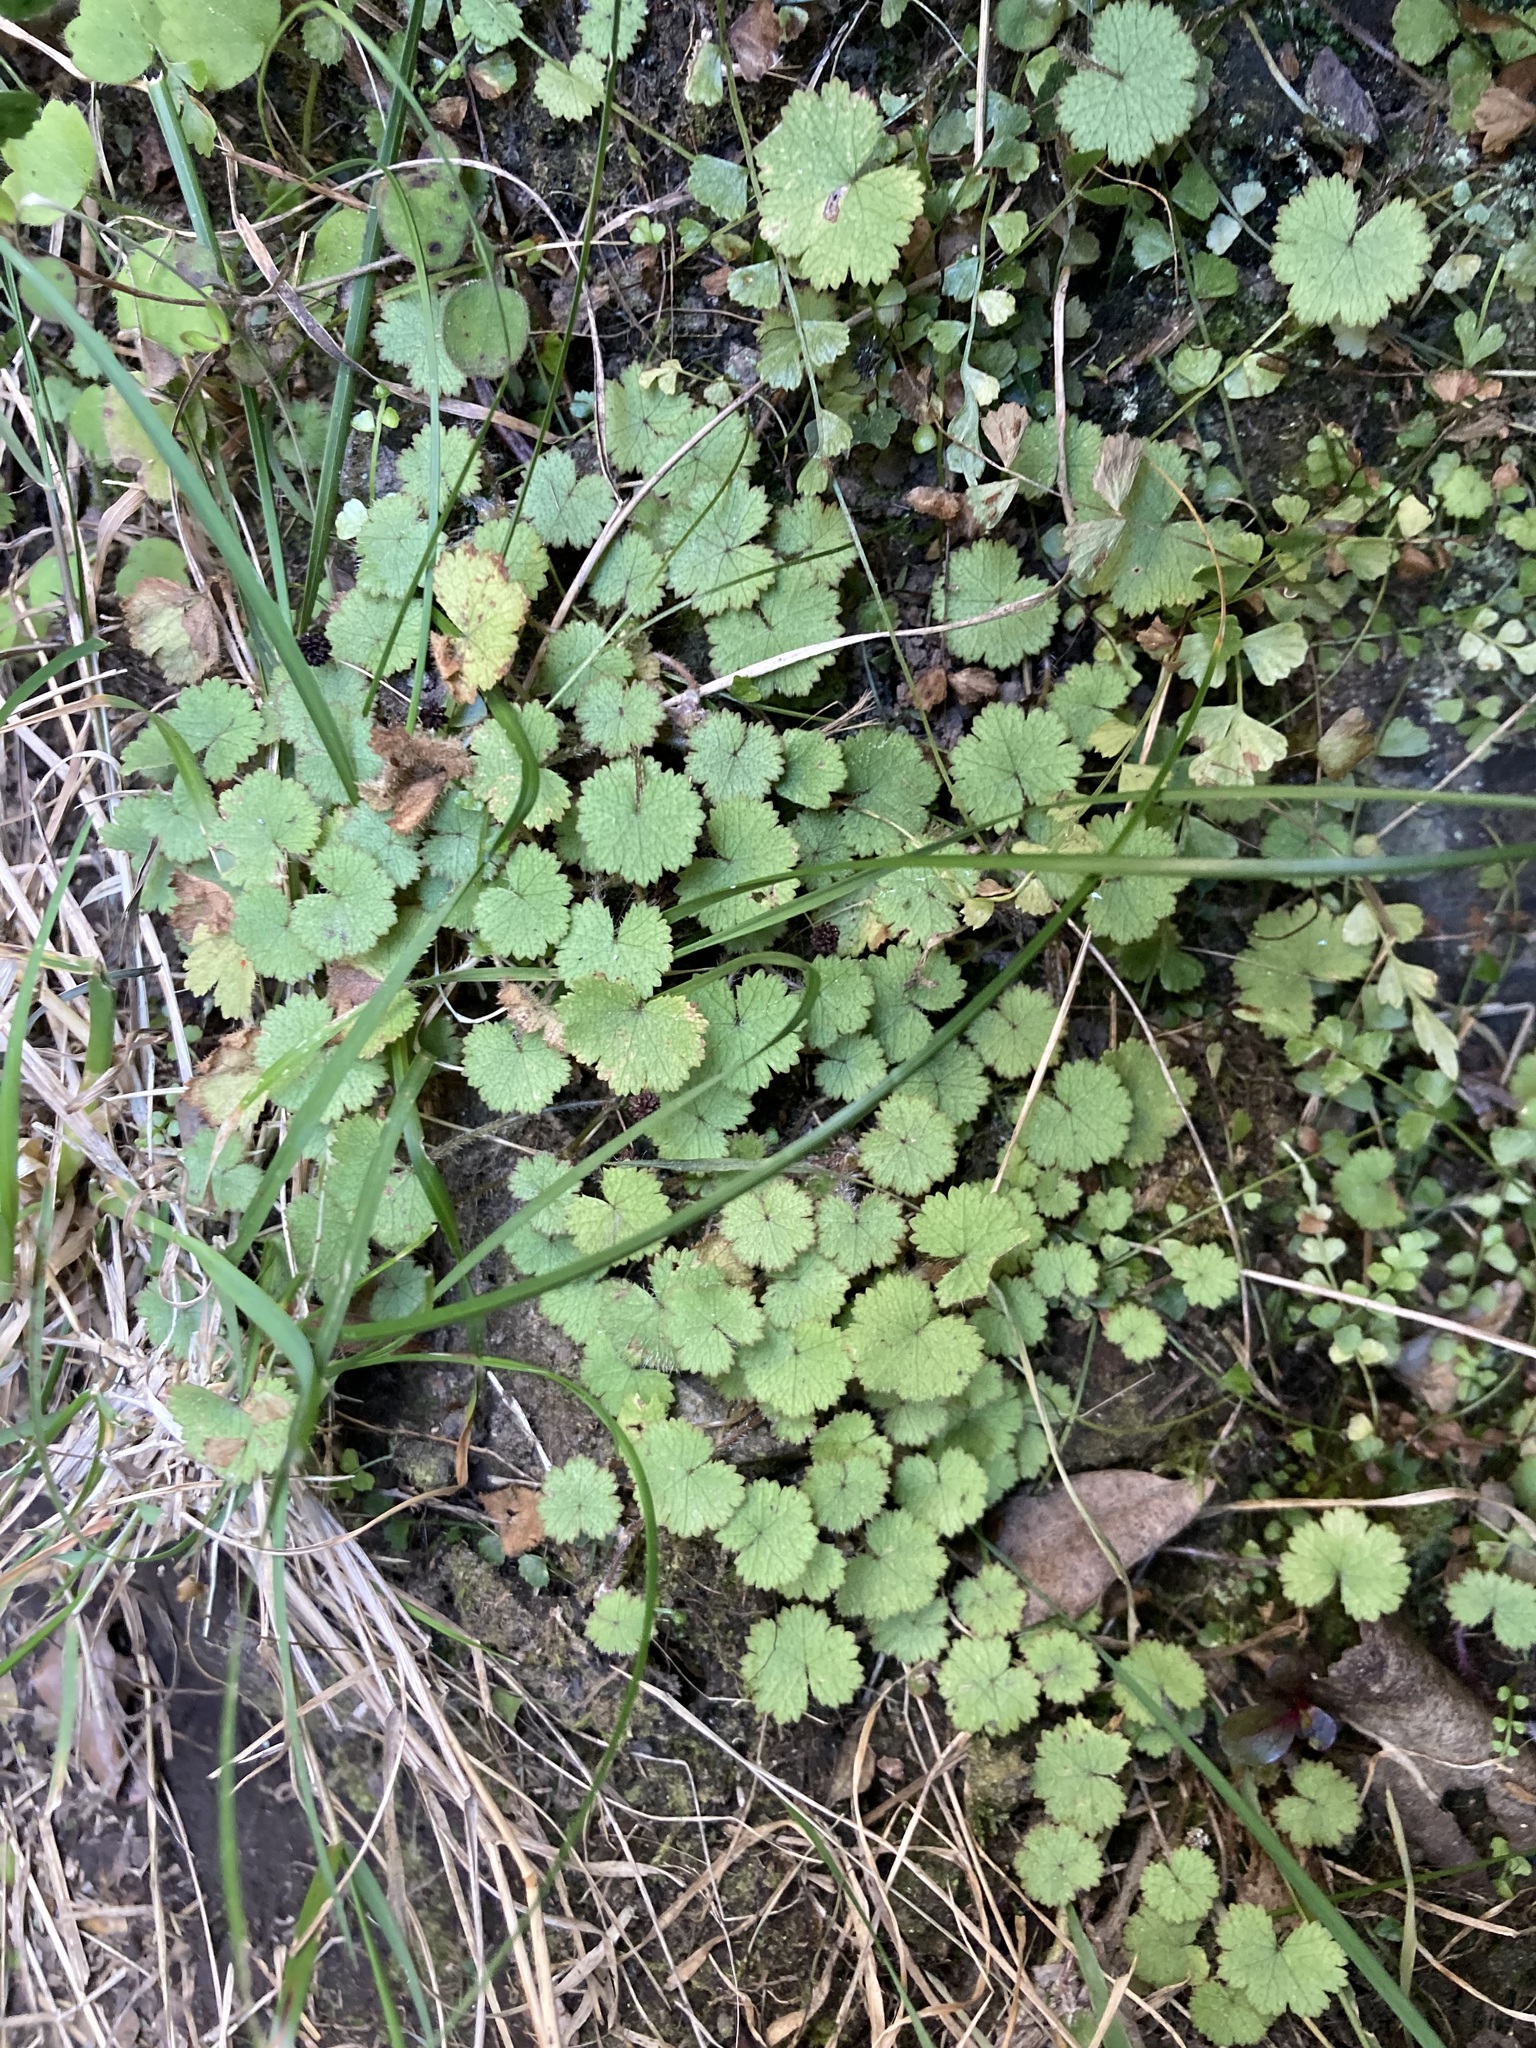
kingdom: Plantae
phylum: Tracheophyta
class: Magnoliopsida
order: Apiales
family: Araliaceae
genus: Hydrocotyle
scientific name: Hydrocotyle moschata
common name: Hairy pennywort
